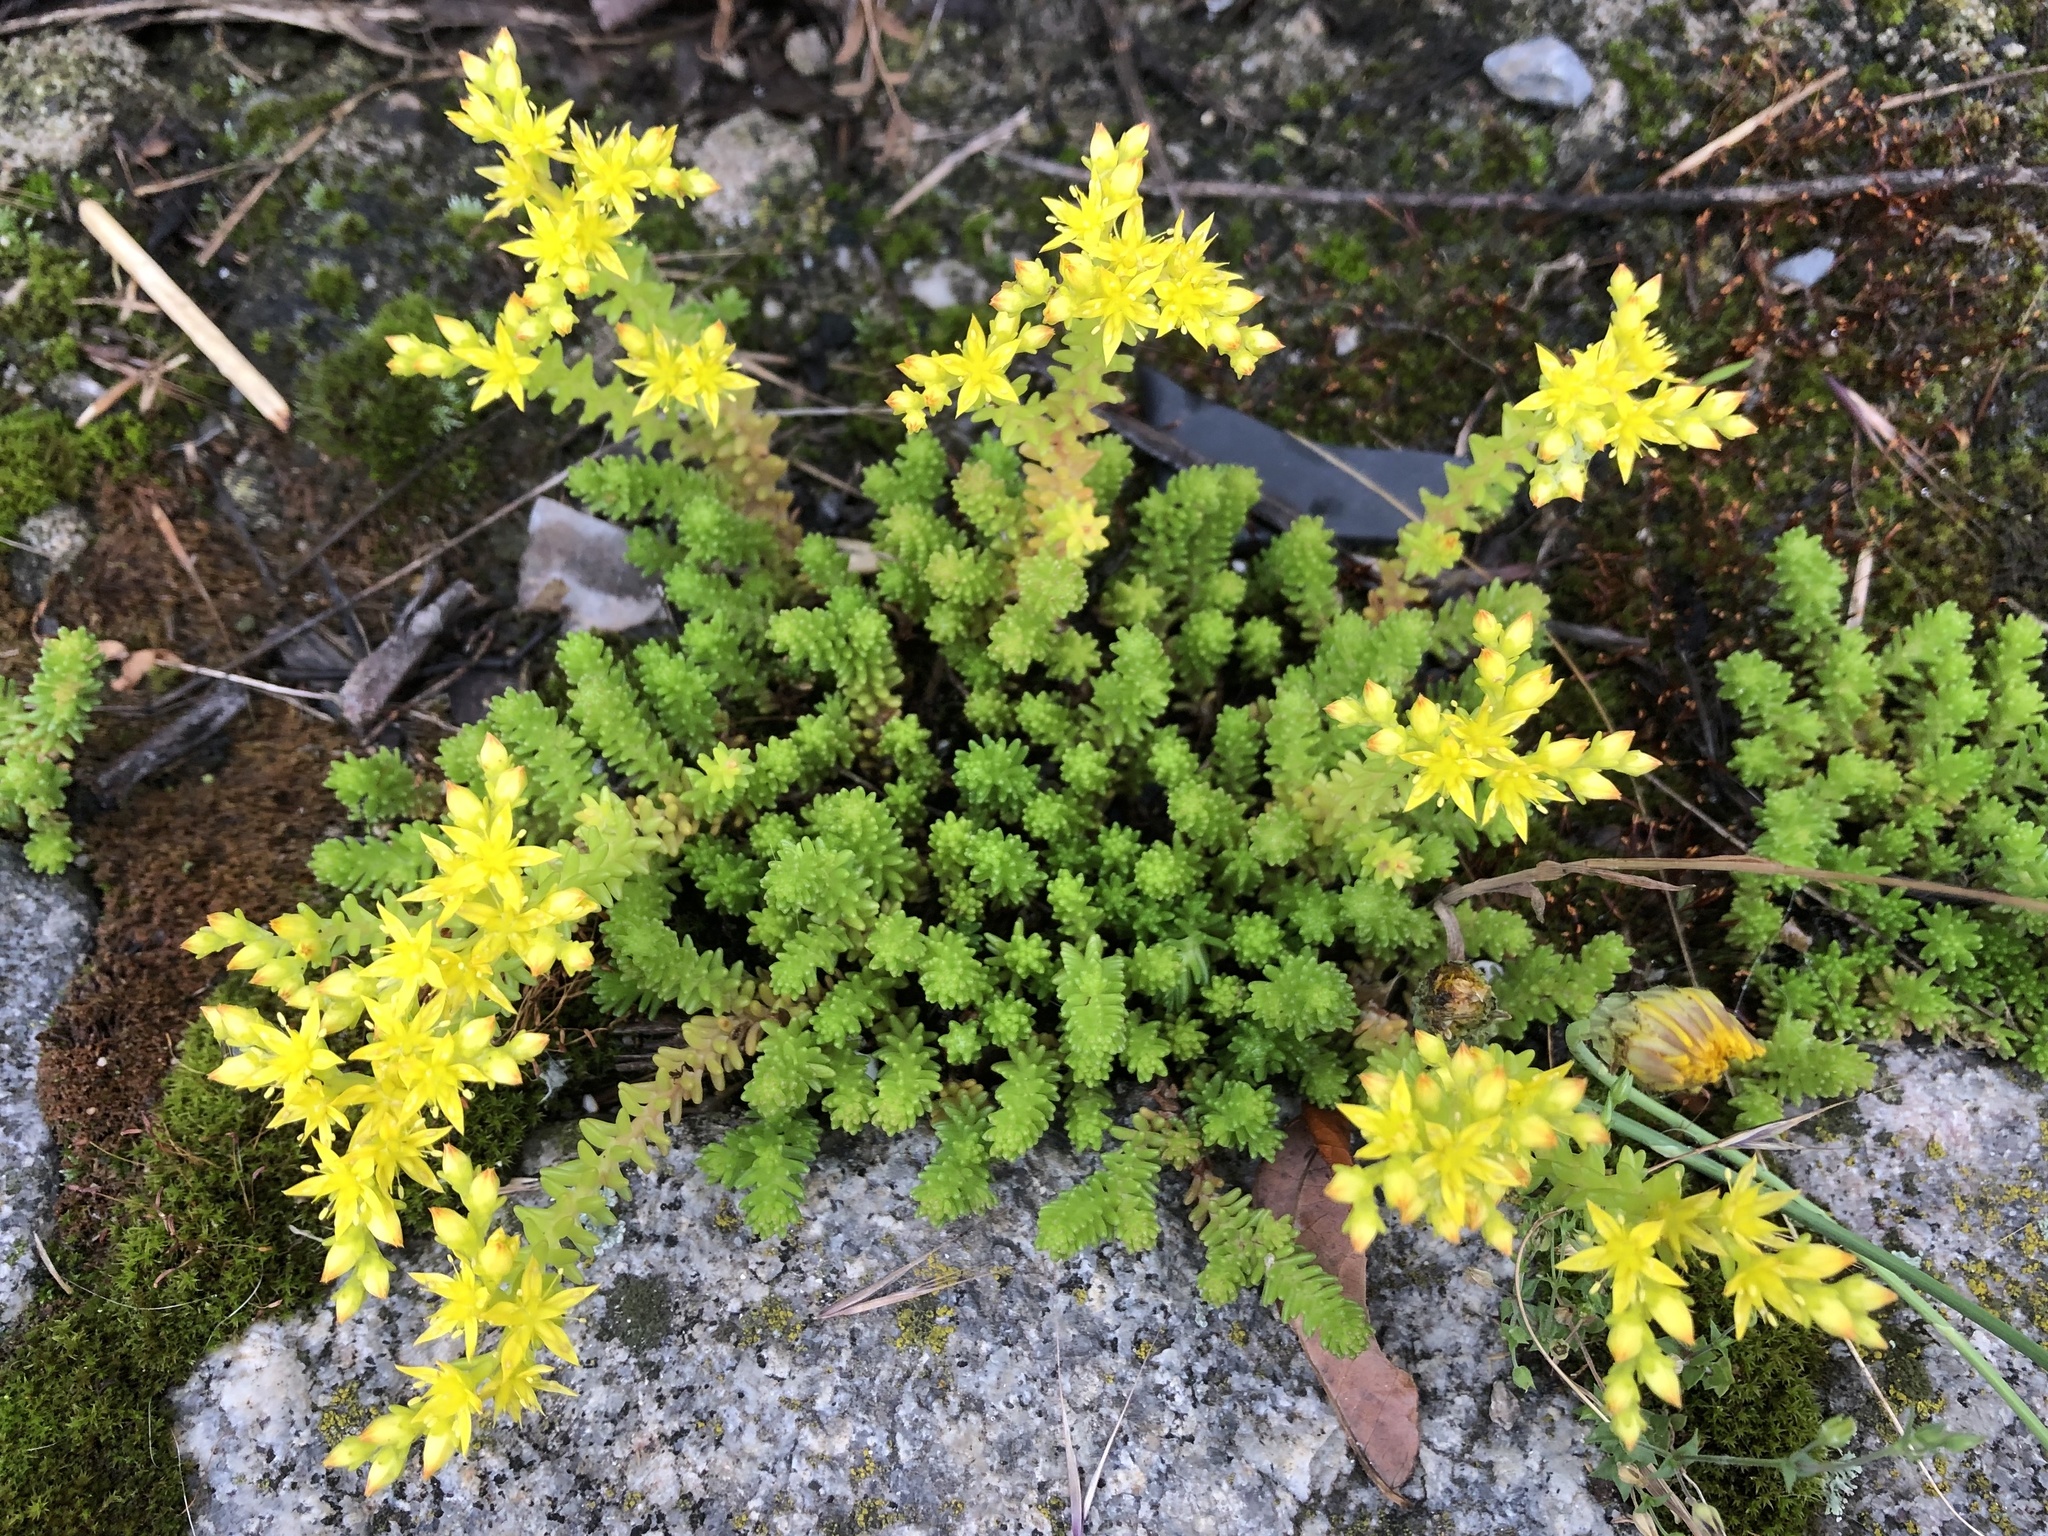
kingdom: Plantae
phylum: Tracheophyta
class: Magnoliopsida
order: Saxifragales
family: Crassulaceae
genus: Sedum
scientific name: Sedum sexangulare
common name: Tasteless stonecrop
